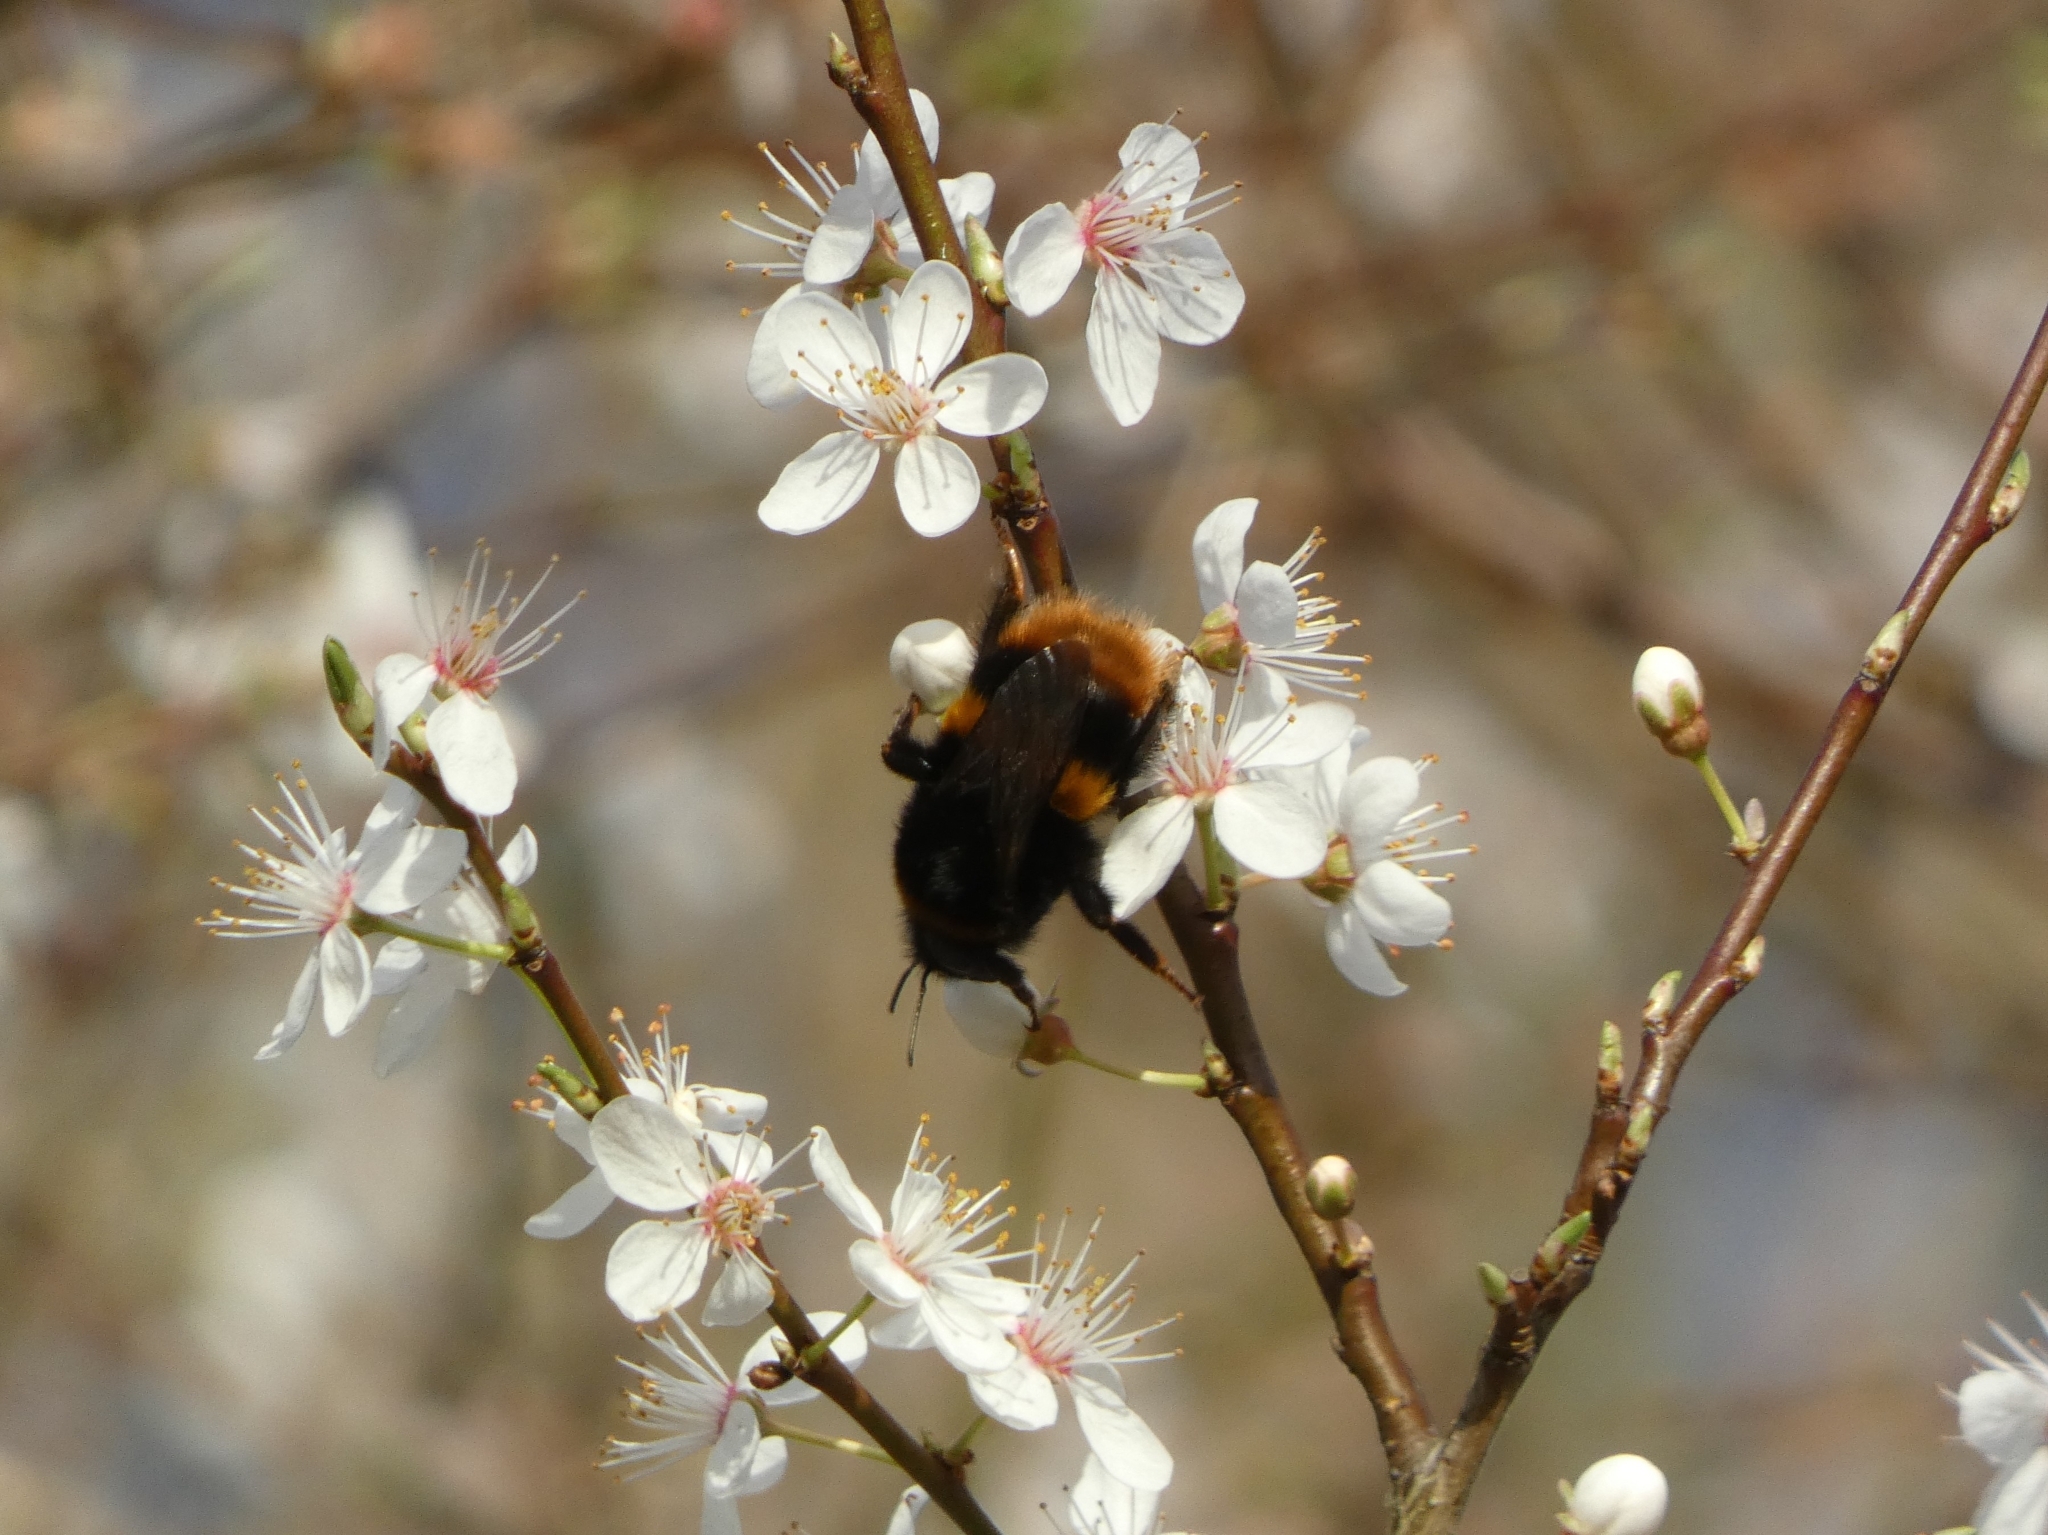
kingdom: Animalia
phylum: Arthropoda
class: Insecta
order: Hymenoptera
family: Apidae
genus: Bombus
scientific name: Bombus terrestris
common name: Buff-tailed bumblebee
